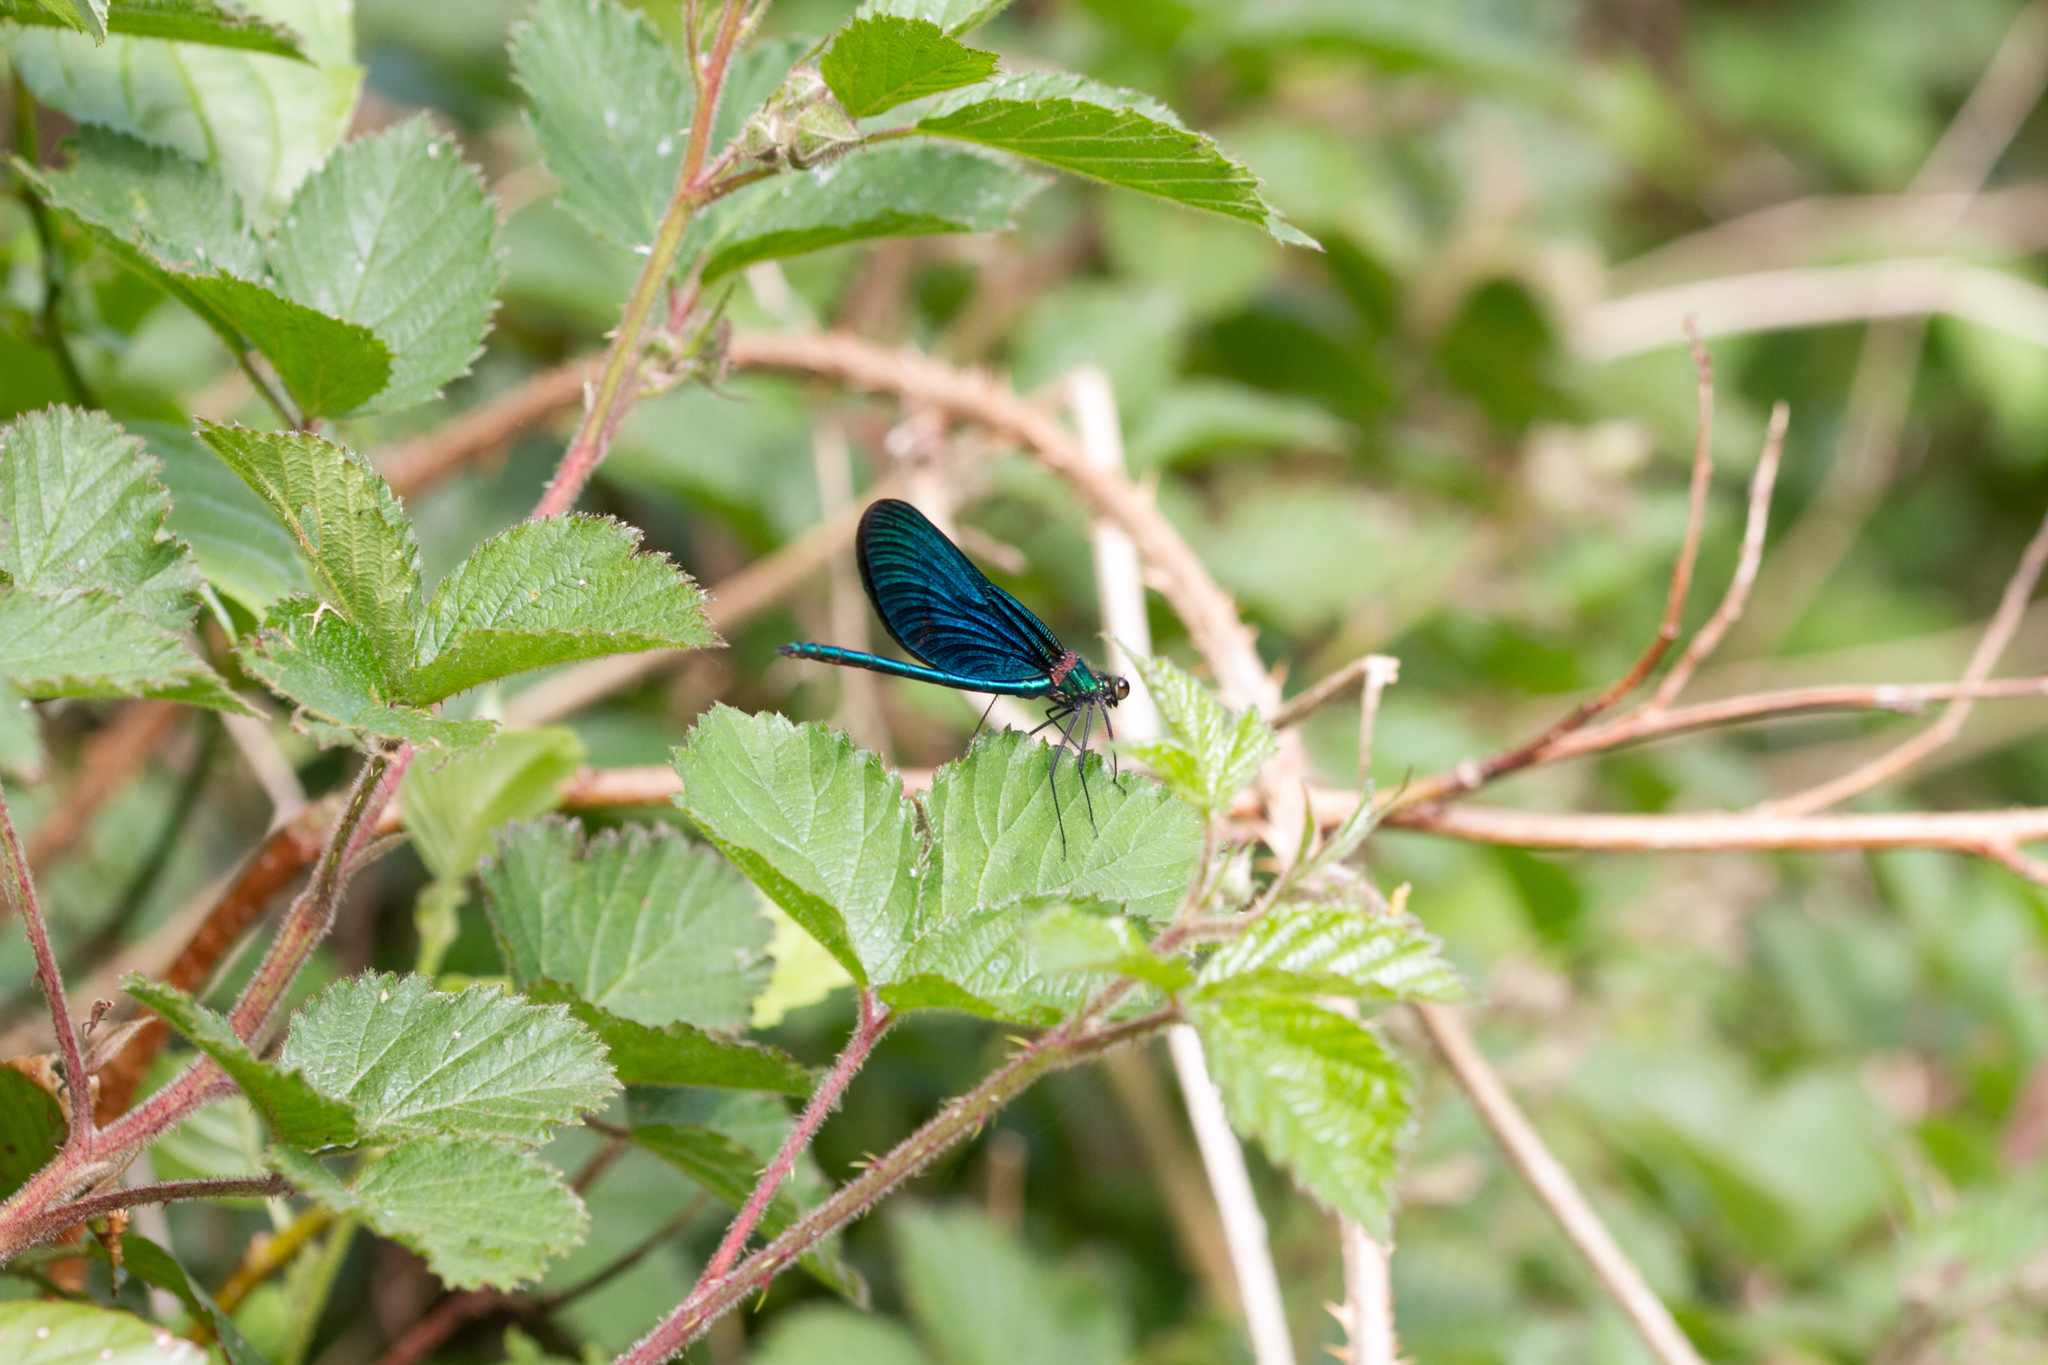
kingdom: Animalia
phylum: Arthropoda
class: Insecta
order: Odonata
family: Calopterygidae
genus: Calopteryx
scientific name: Calopteryx virgo
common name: Beautiful demoiselle
